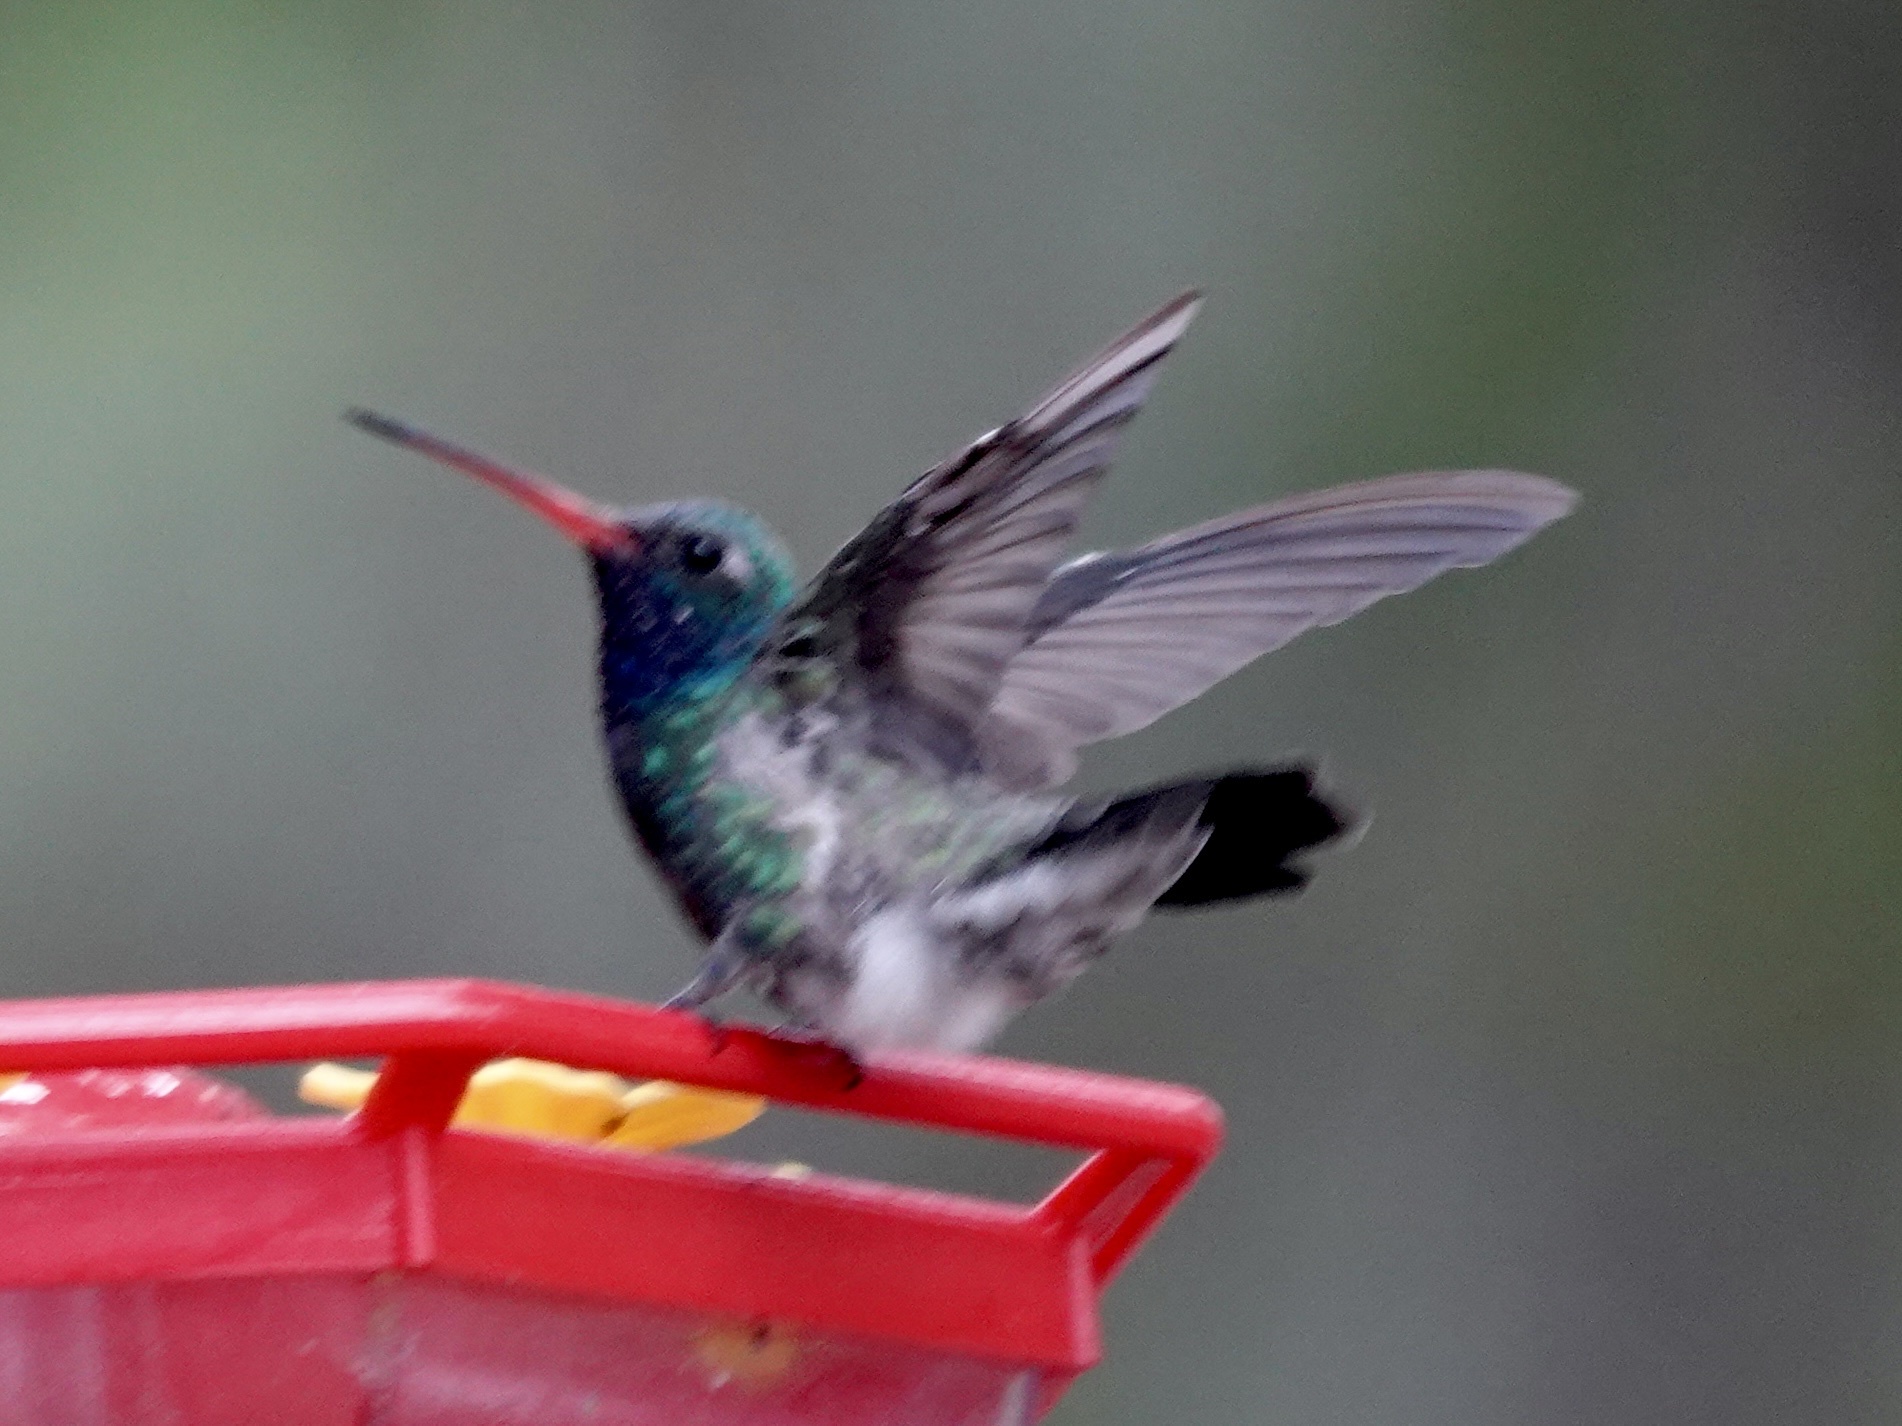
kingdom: Animalia
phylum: Chordata
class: Aves
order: Apodiformes
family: Trochilidae
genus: Cynanthus
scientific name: Cynanthus latirostris
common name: Broad-billed hummingbird
